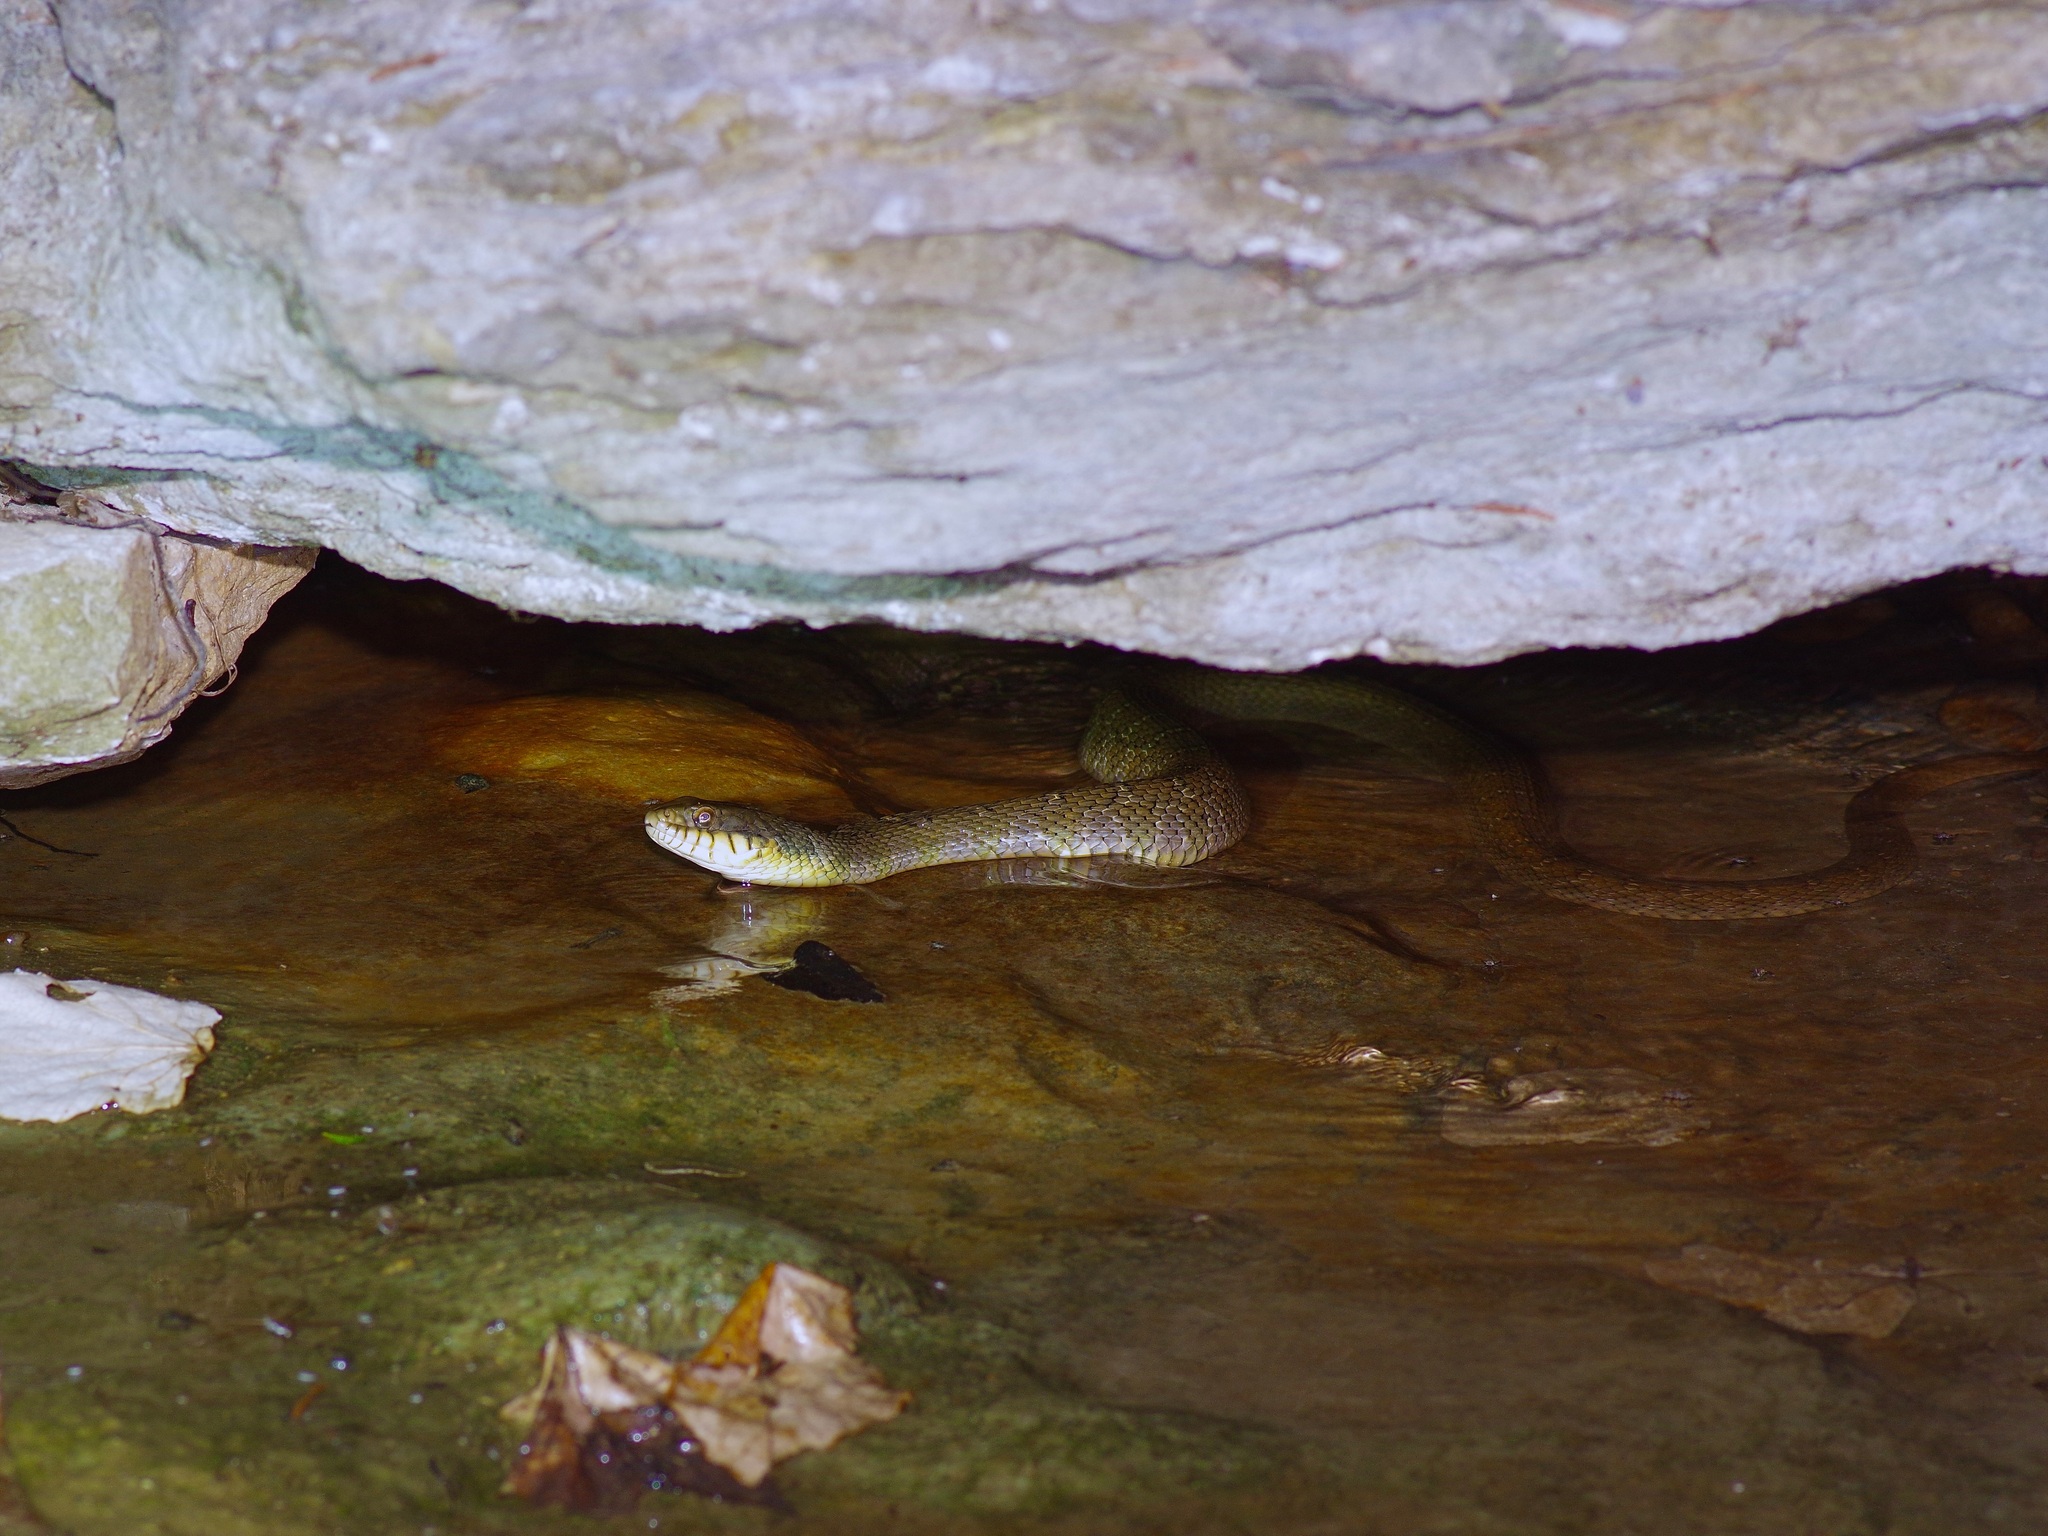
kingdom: Animalia
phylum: Chordata
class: Squamata
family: Colubridae
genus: Nerodia
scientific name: Nerodia erythrogaster
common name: Plainbelly water snake
